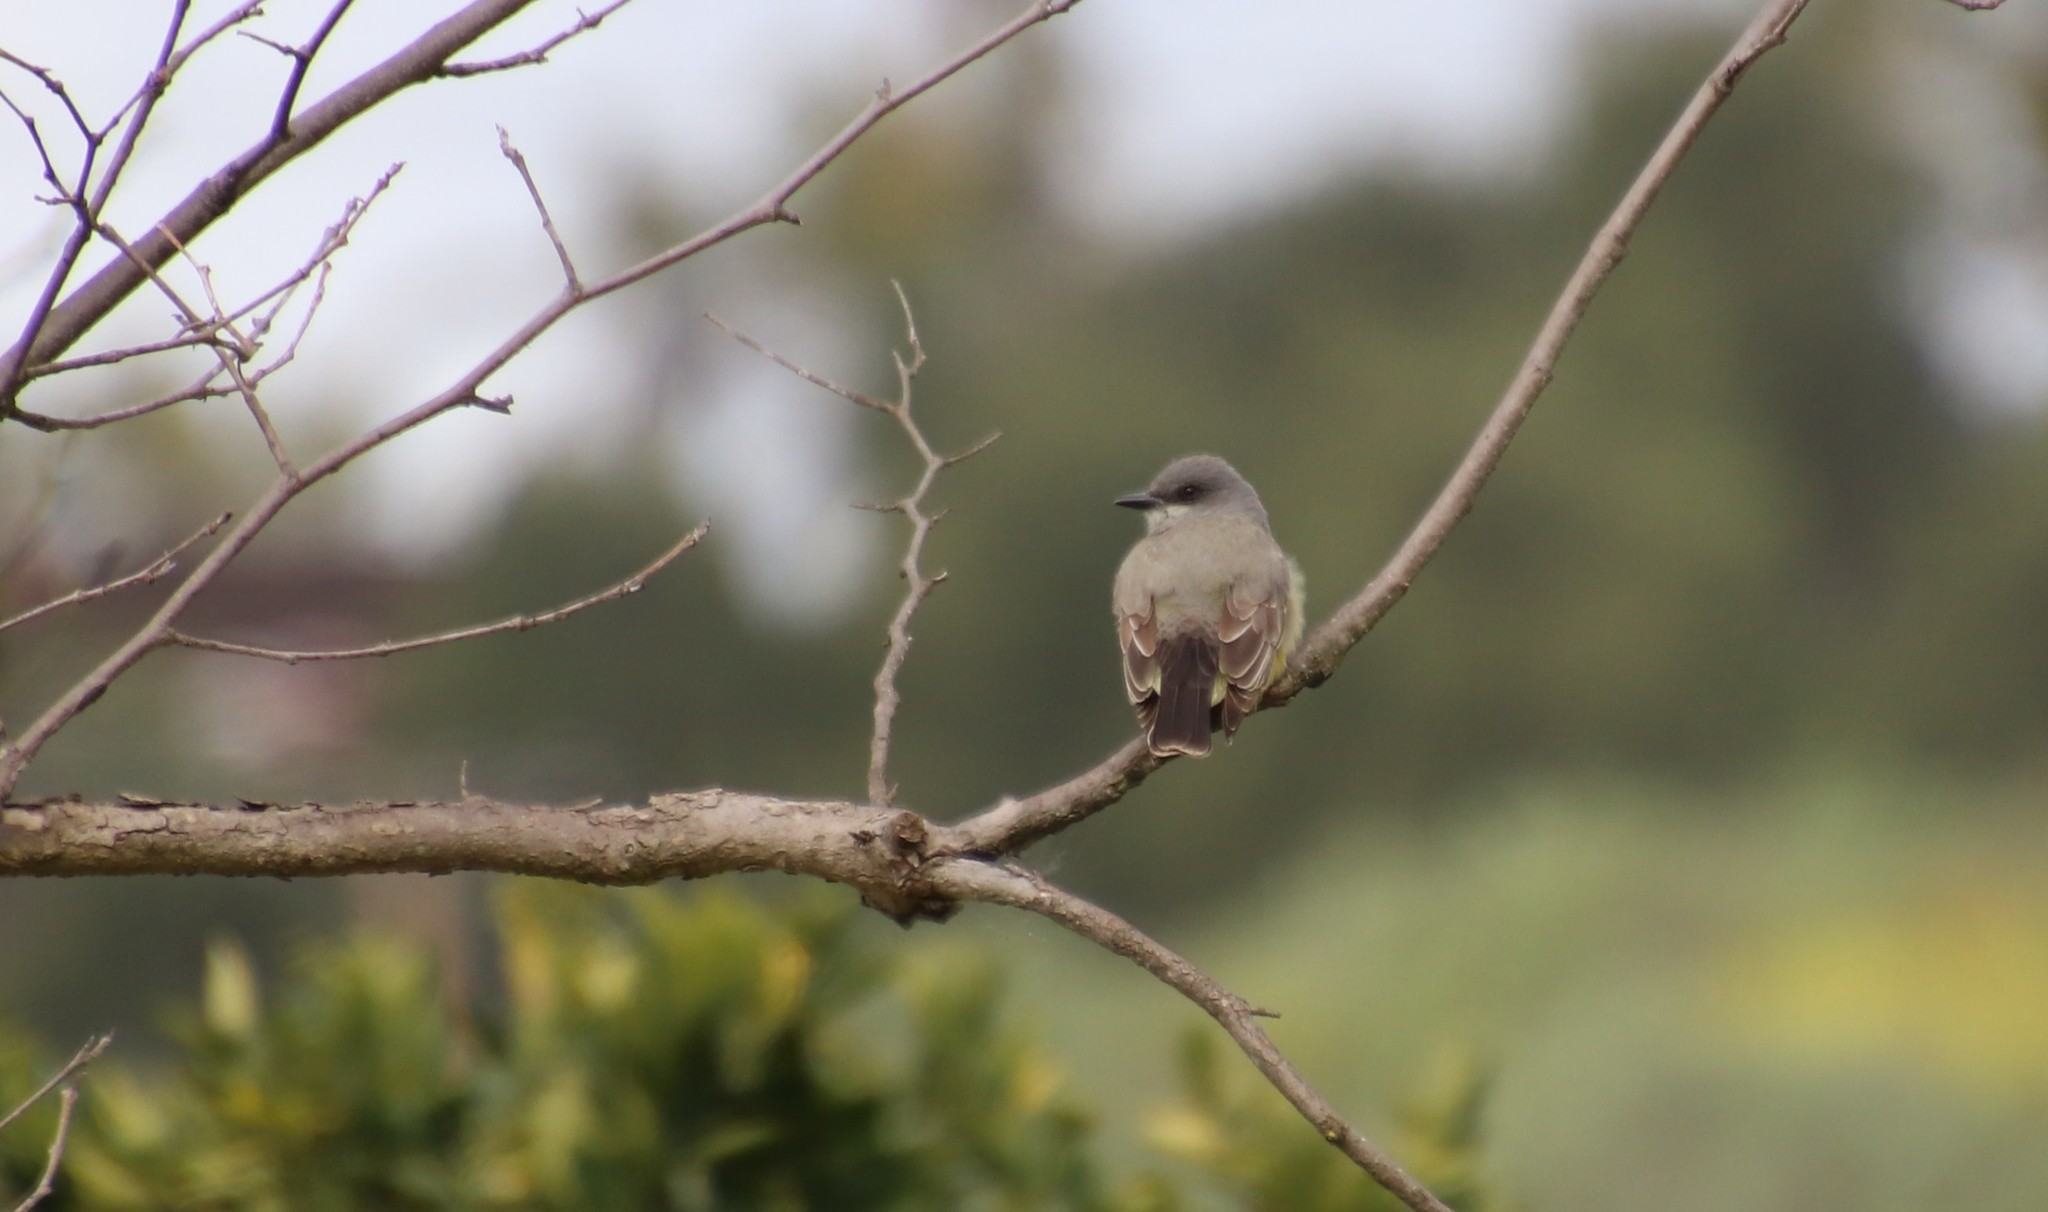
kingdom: Animalia
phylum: Chordata
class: Aves
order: Passeriformes
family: Tyrannidae
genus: Tyrannus
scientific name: Tyrannus vociferans
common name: Cassin's kingbird
